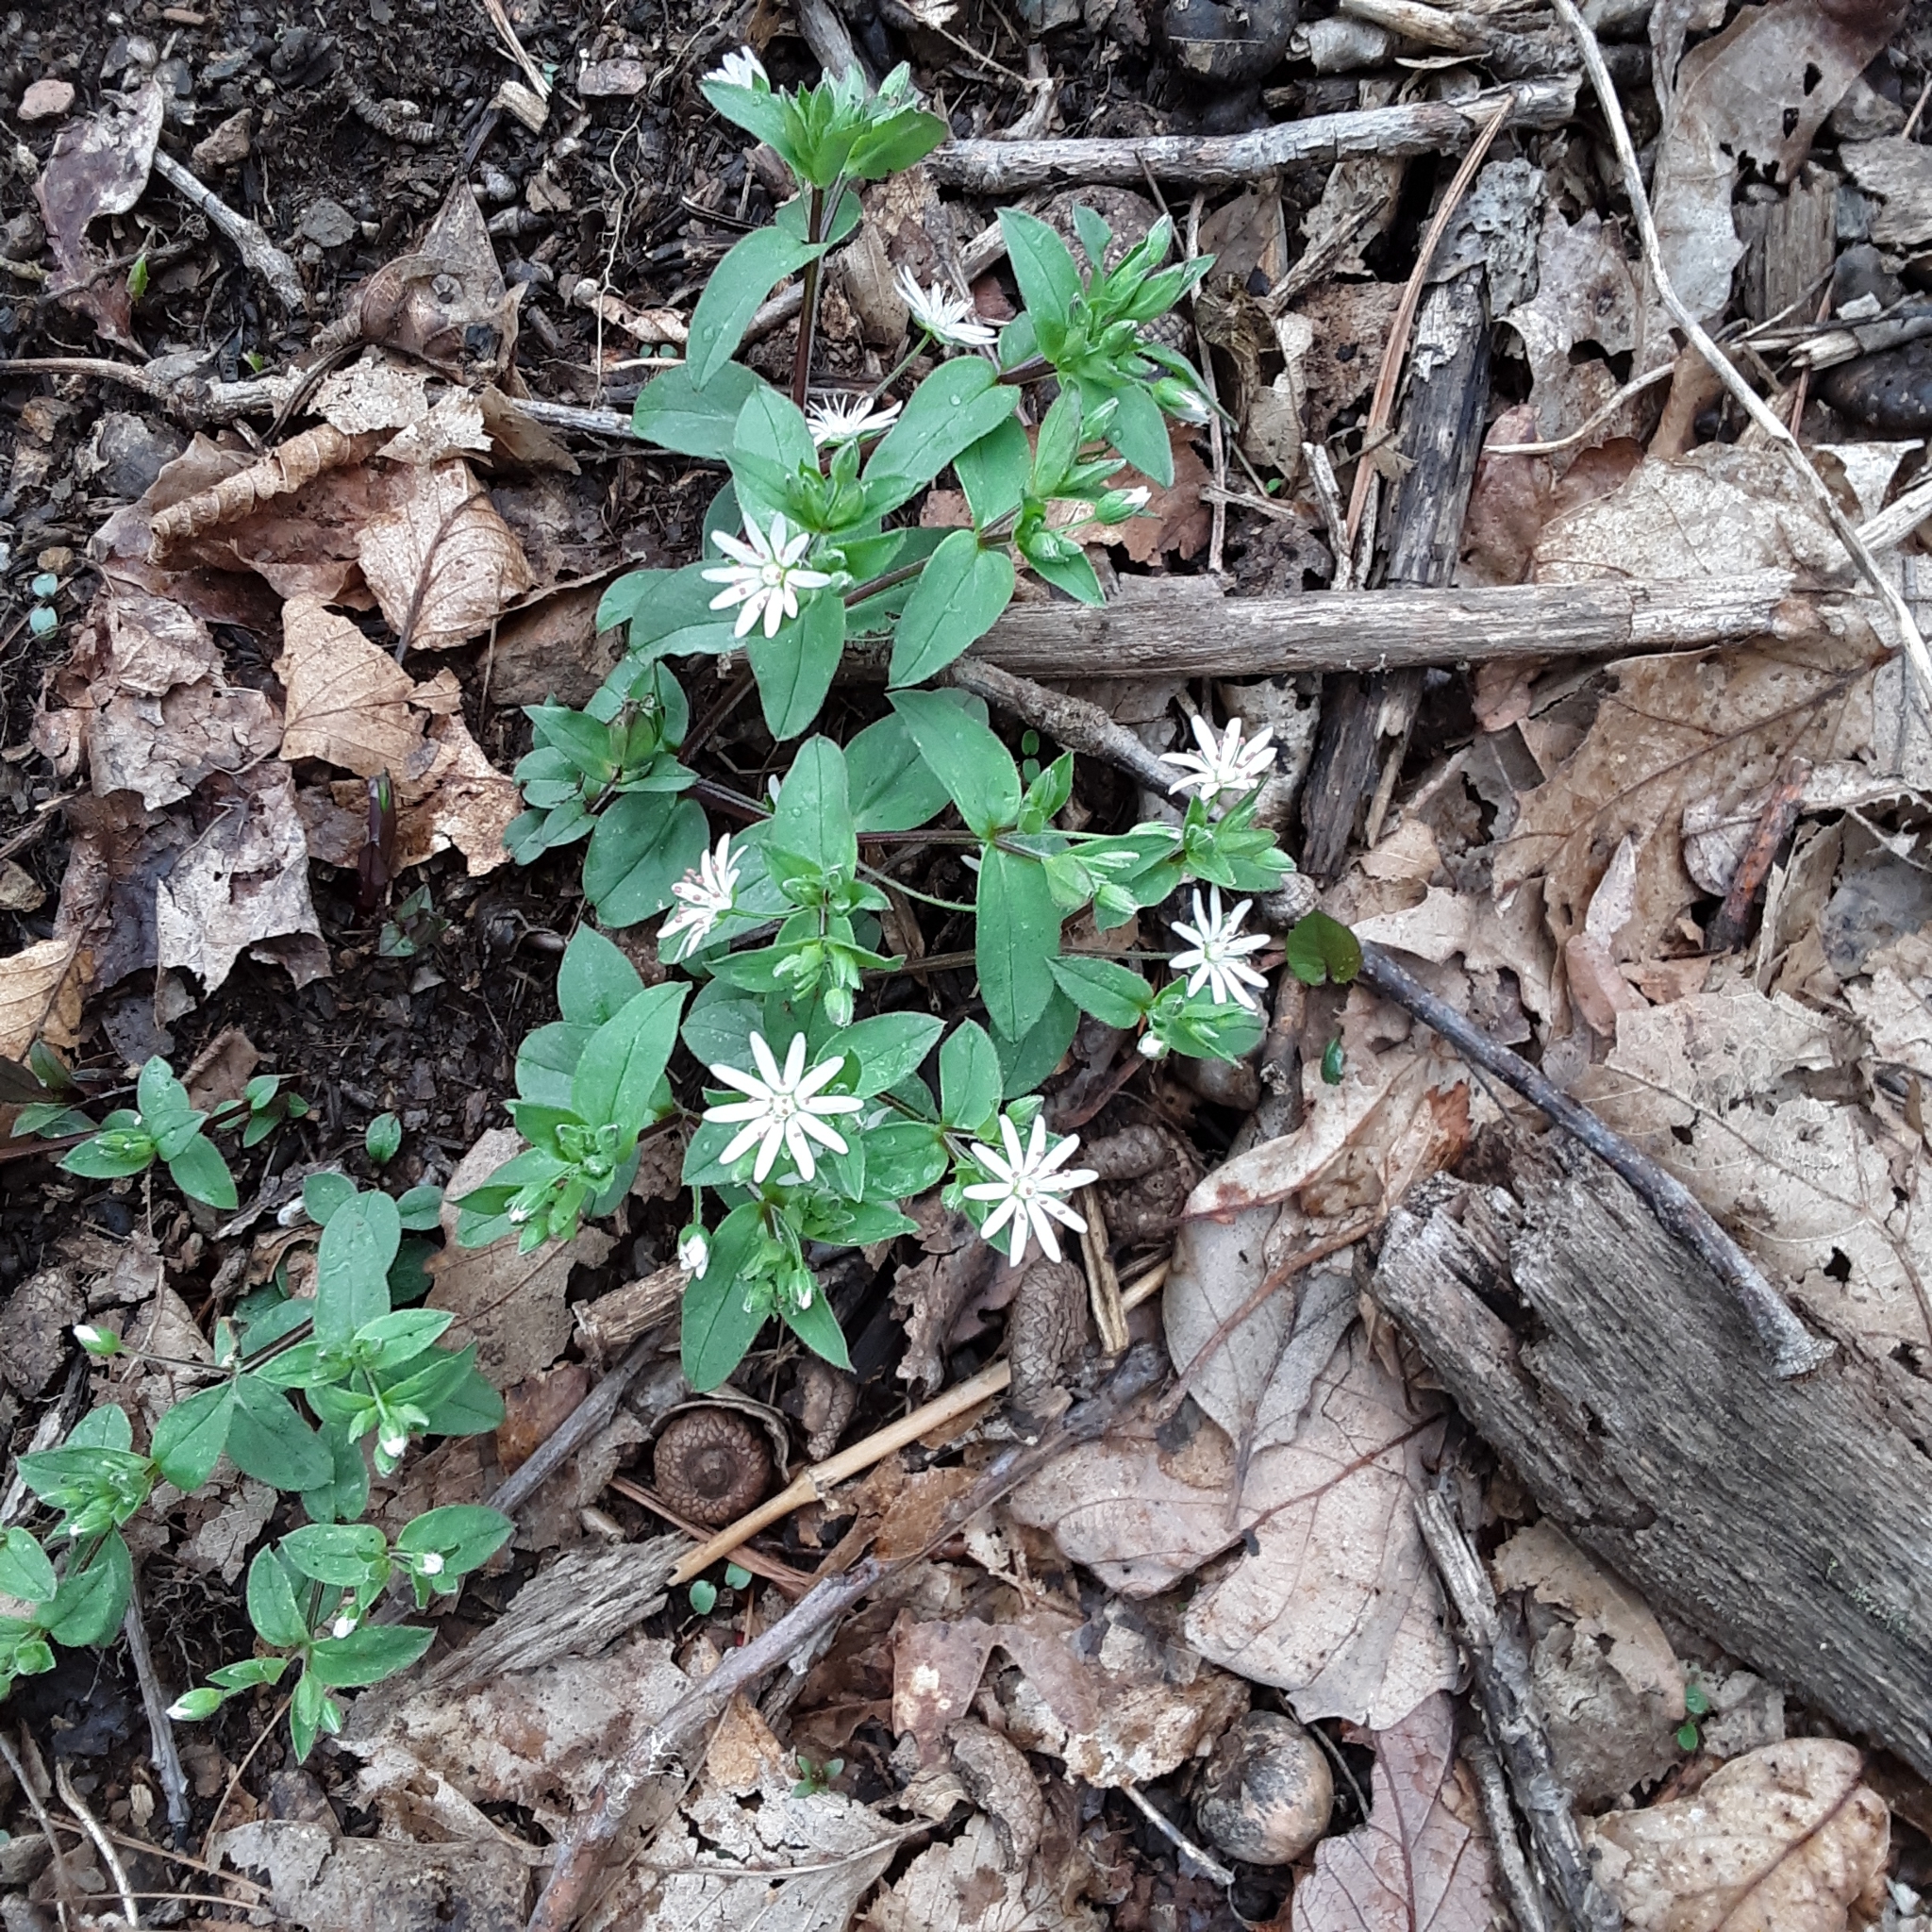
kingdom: Plantae
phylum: Tracheophyta
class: Magnoliopsida
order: Caryophyllales
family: Caryophyllaceae
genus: Stellaria
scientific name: Stellaria pubera
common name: Star chickweed
